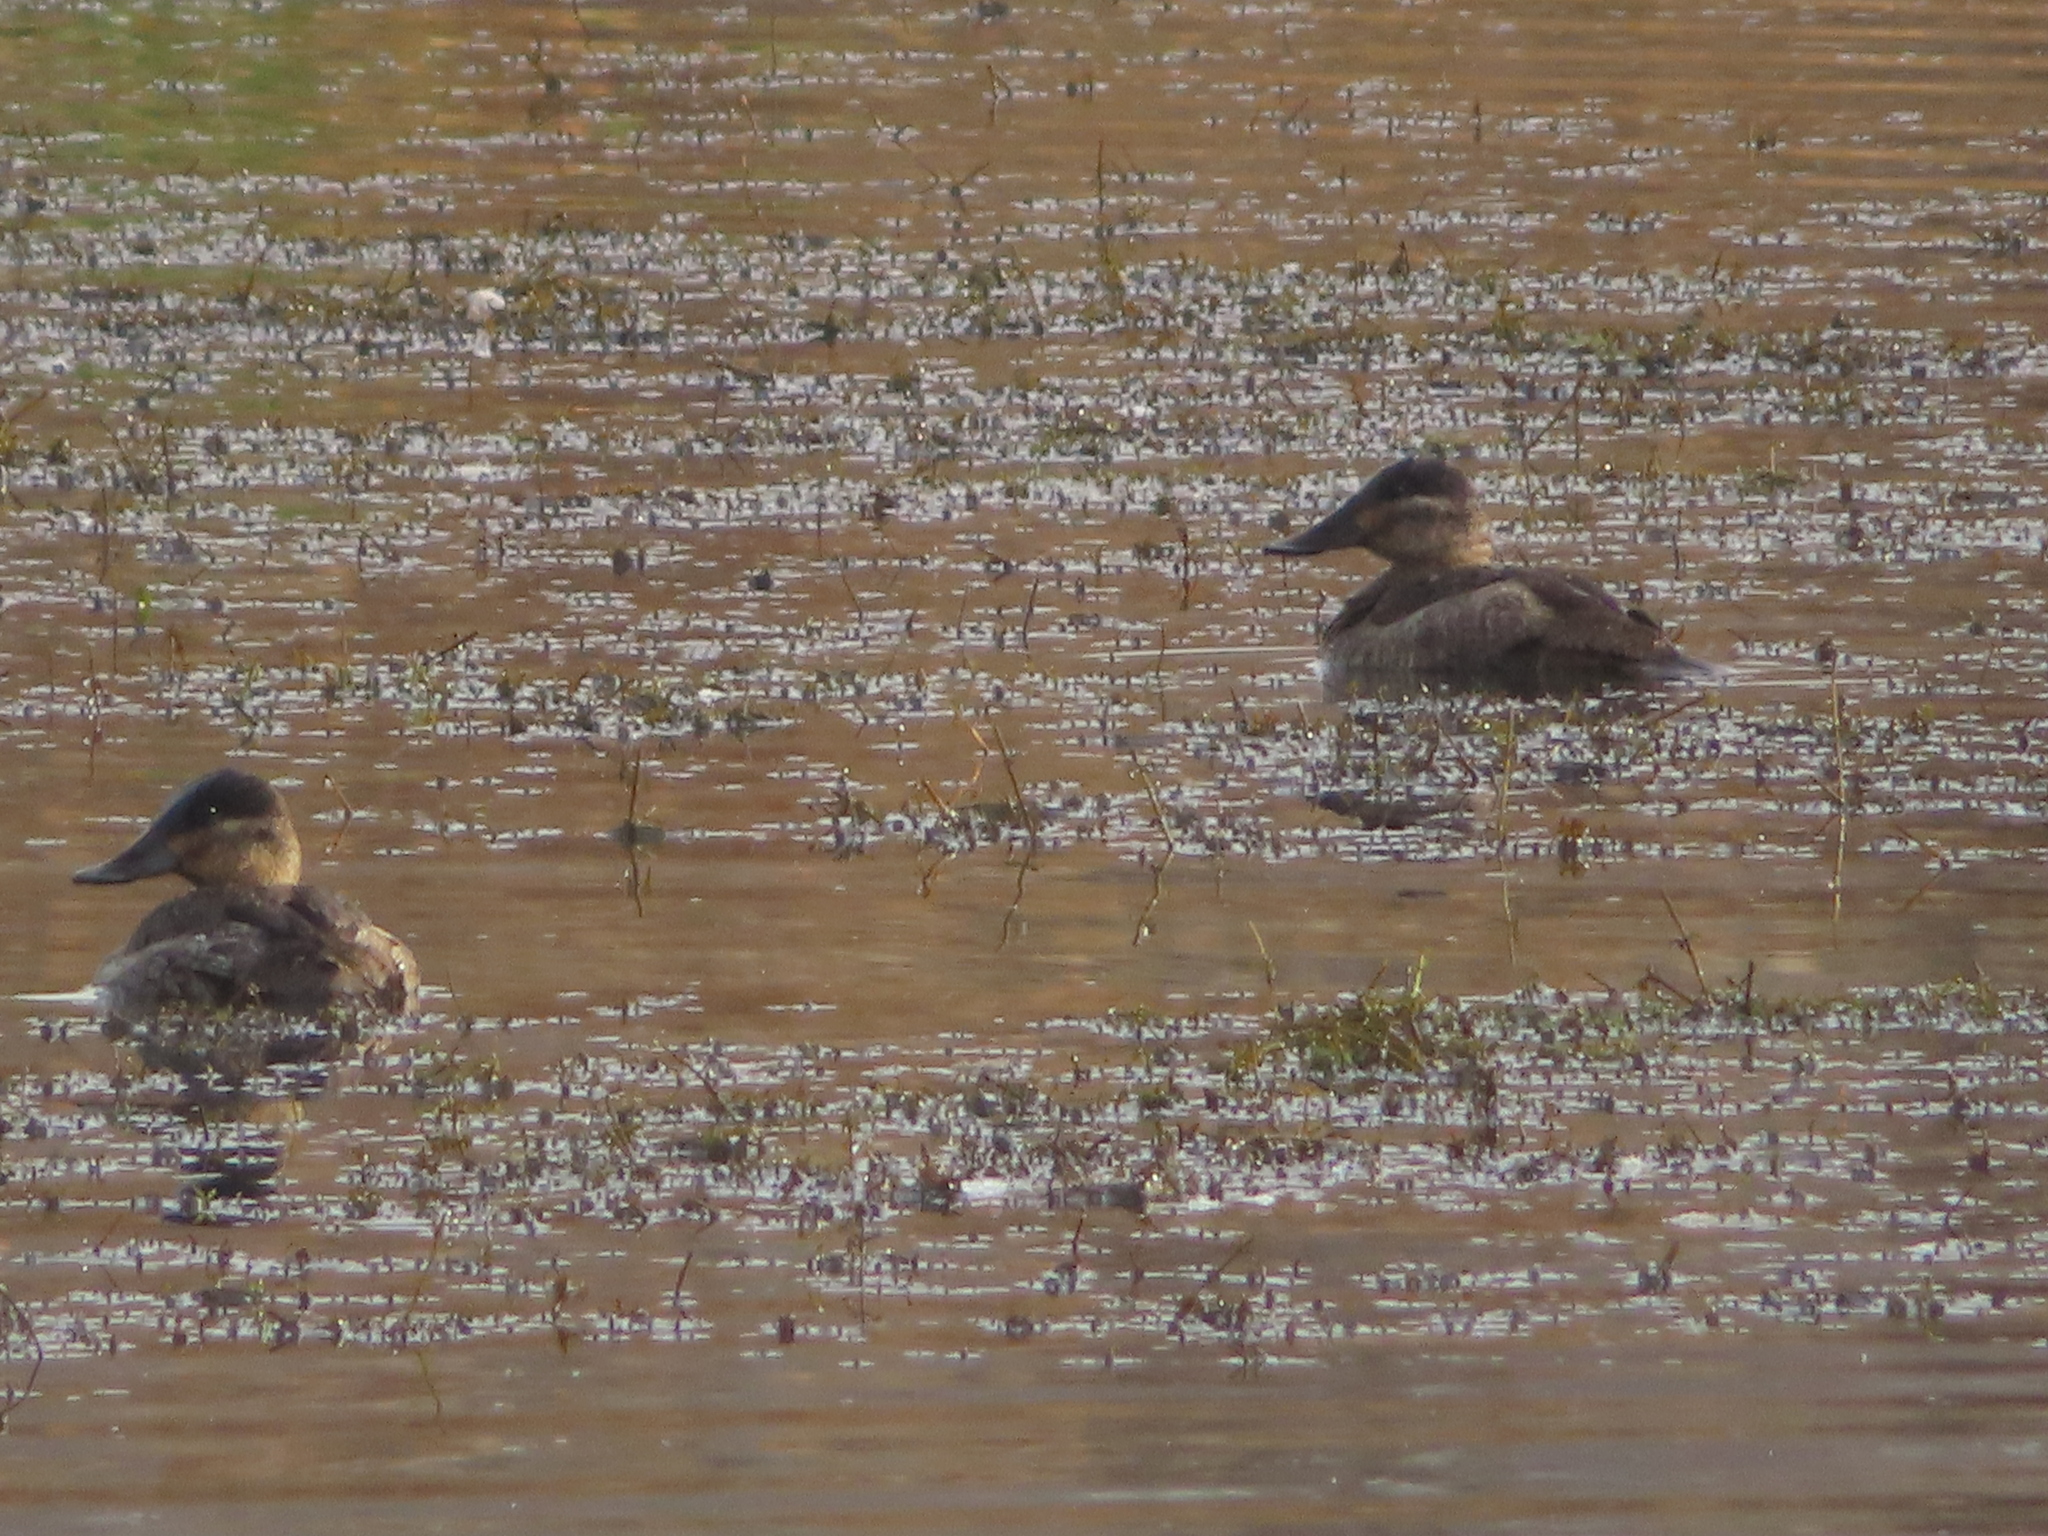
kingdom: Animalia
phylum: Chordata
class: Aves
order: Anseriformes
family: Anatidae
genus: Oxyura
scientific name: Oxyura jamaicensis
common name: Ruddy duck
